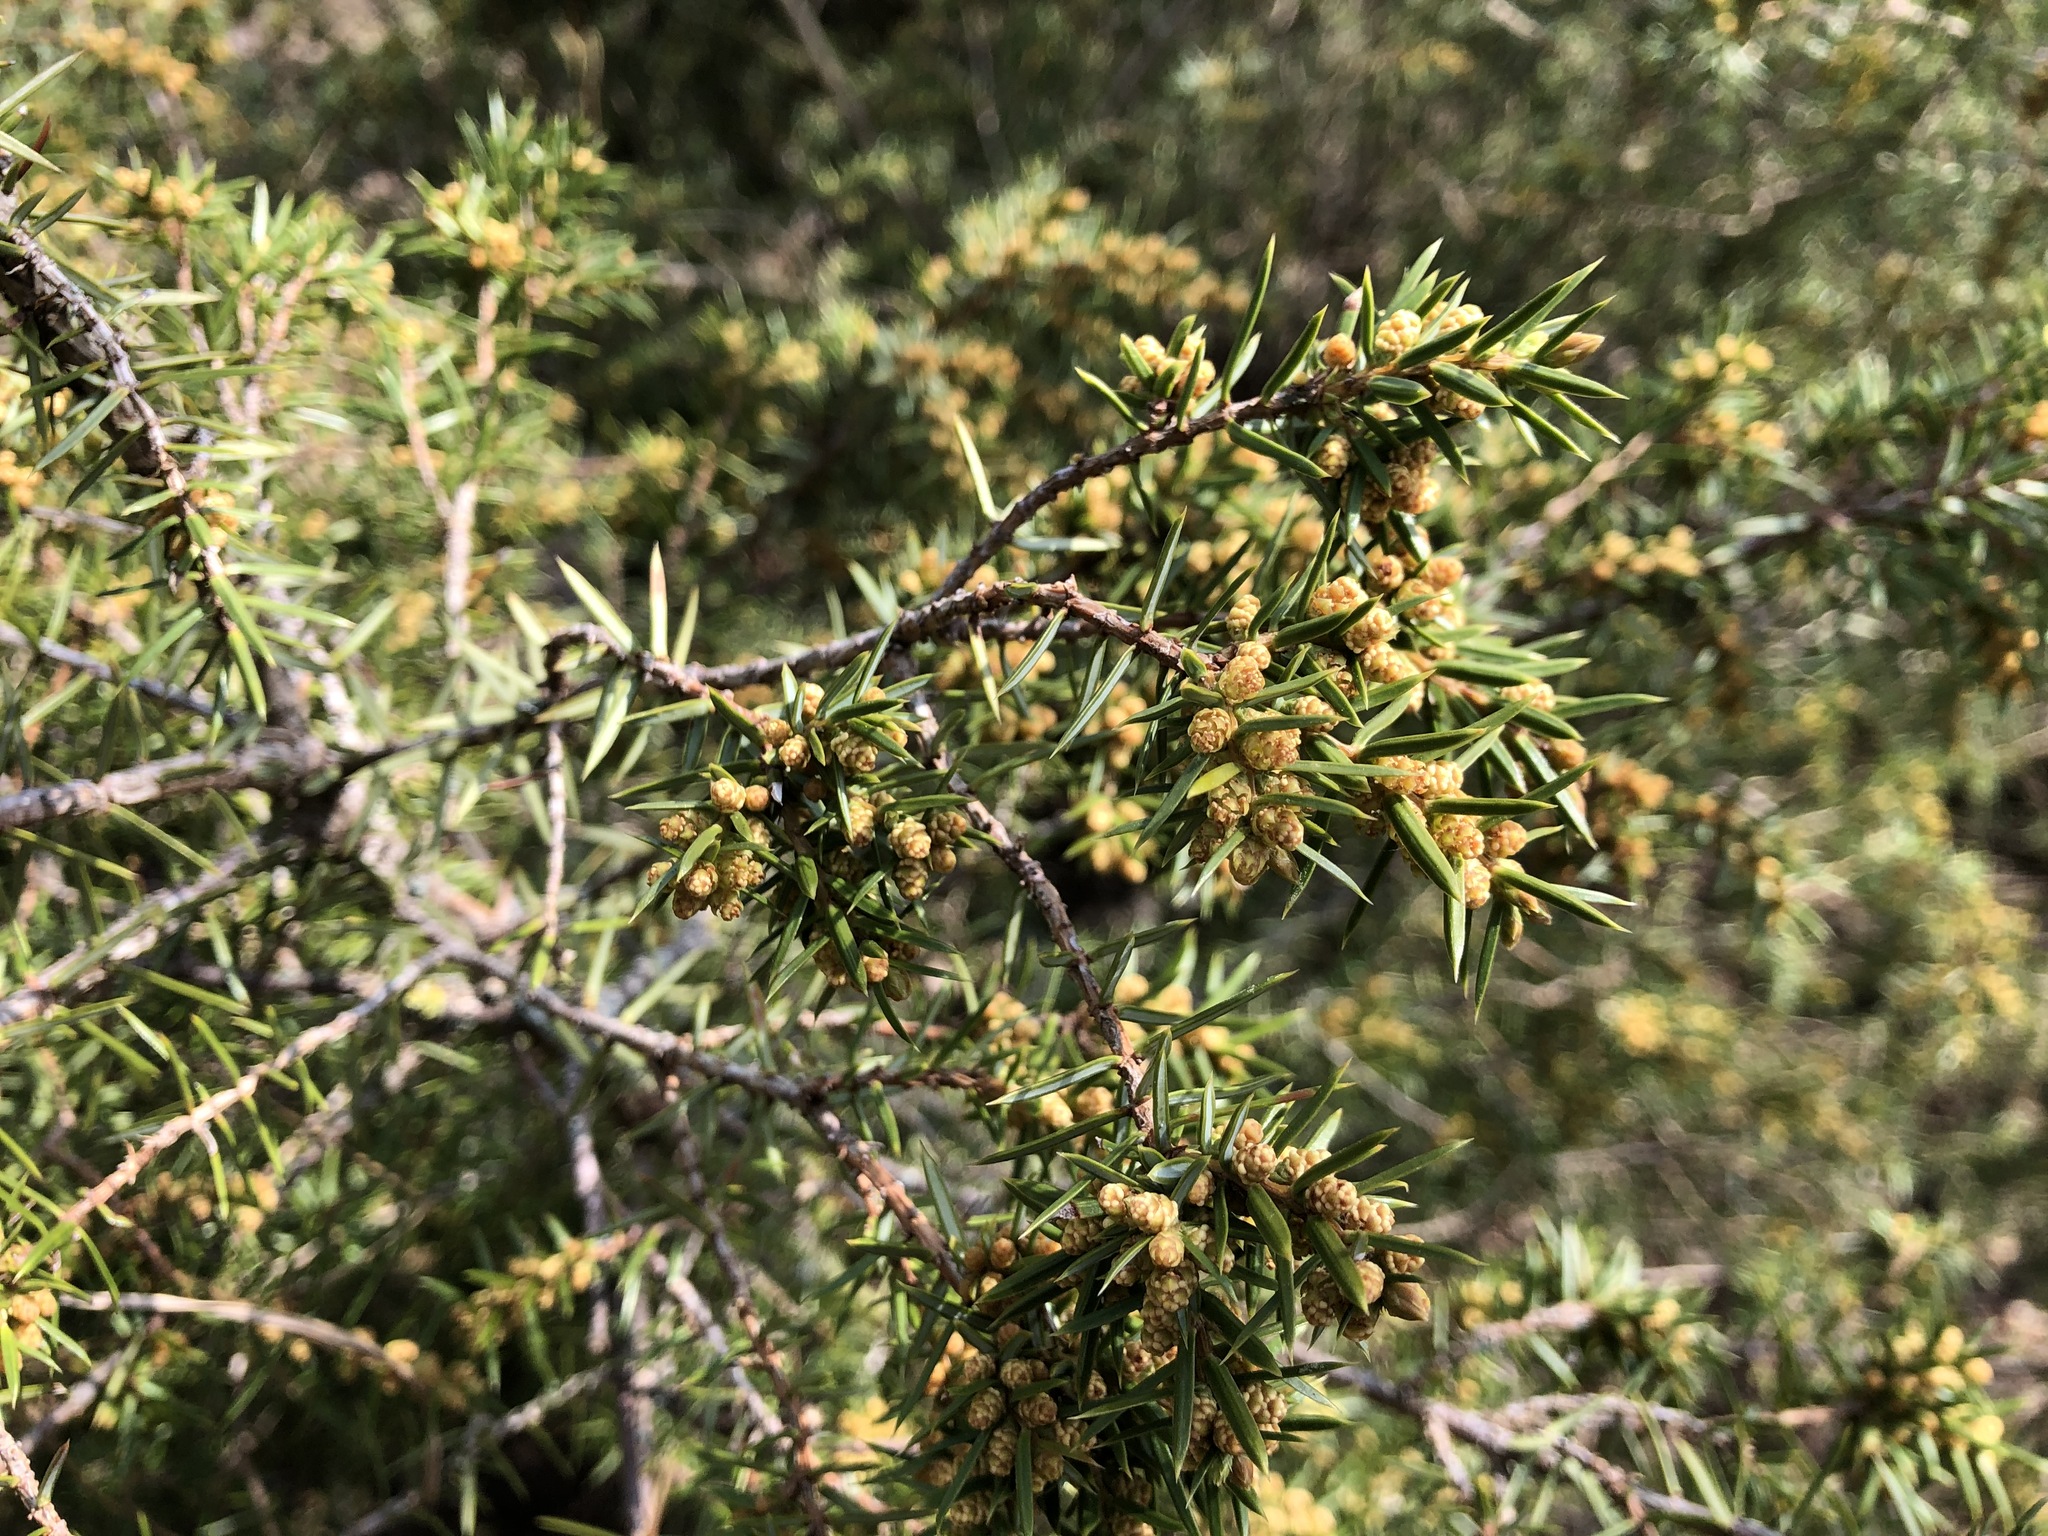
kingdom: Plantae
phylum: Tracheophyta
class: Pinopsida
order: Pinales
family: Cupressaceae
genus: Juniperus
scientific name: Juniperus communis
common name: Common juniper
